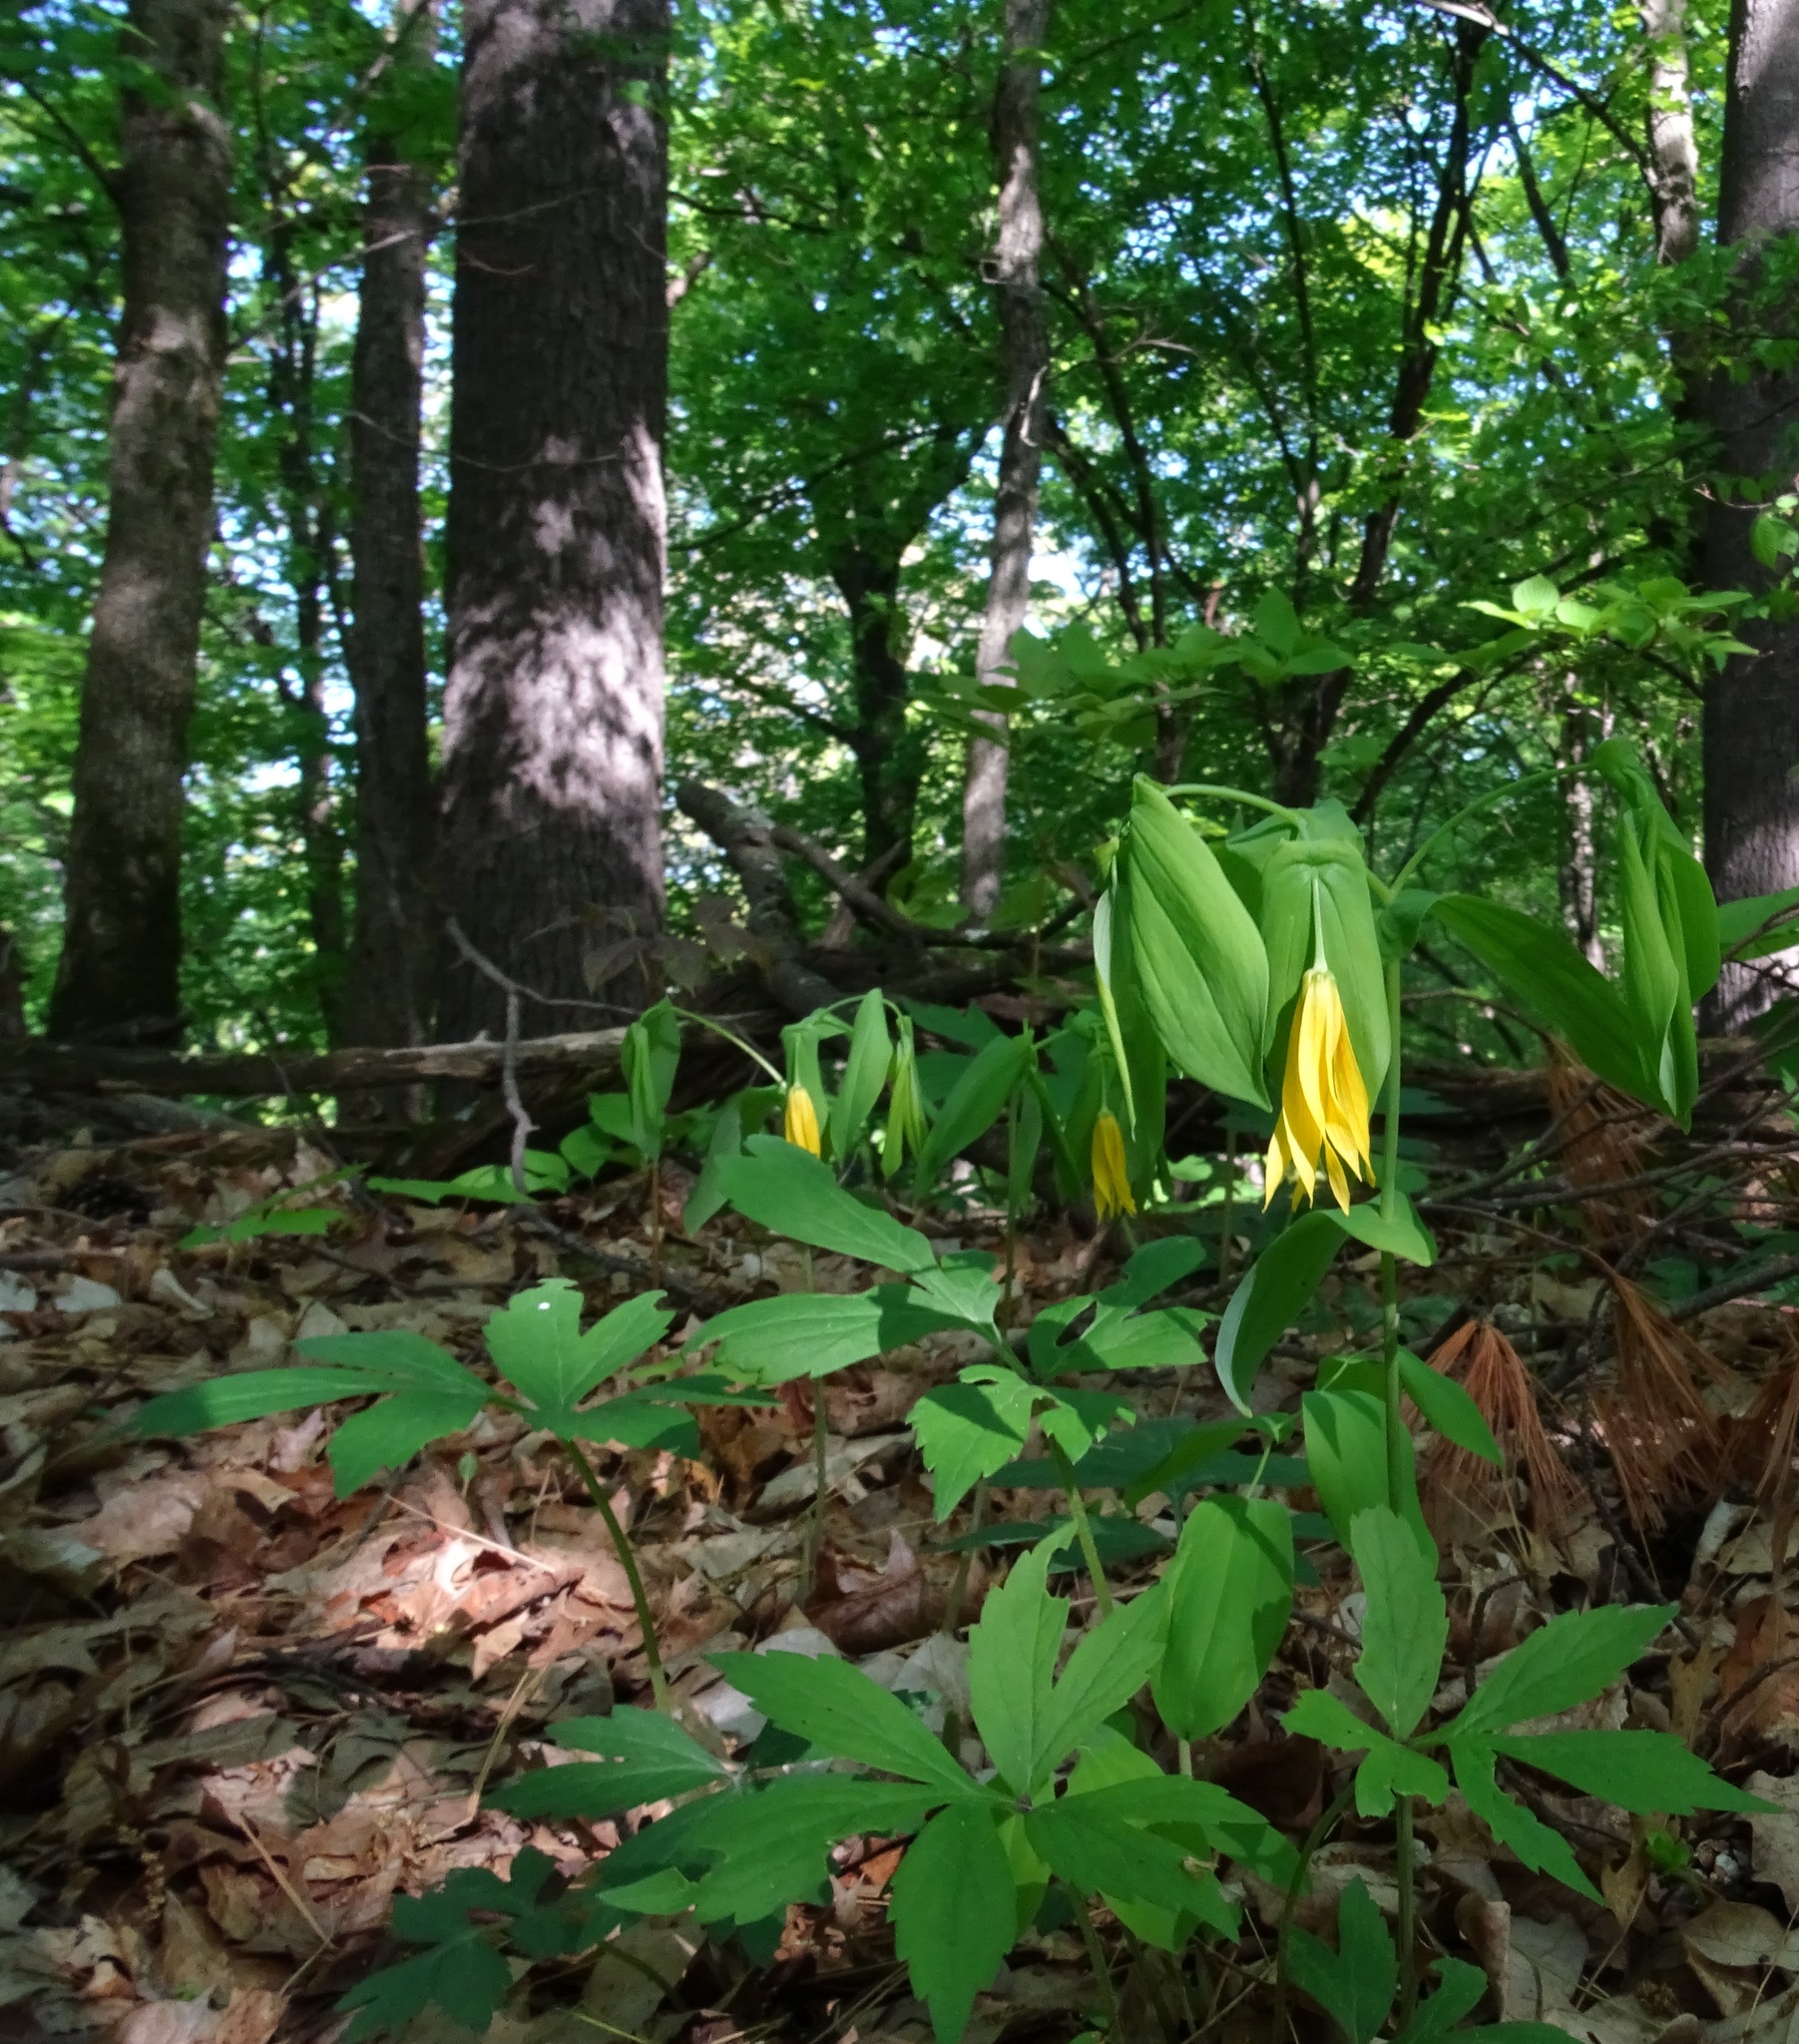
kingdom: Plantae
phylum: Tracheophyta
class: Liliopsida
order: Liliales
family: Colchicaceae
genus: Uvularia
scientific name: Uvularia grandiflora
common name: Bellwort
